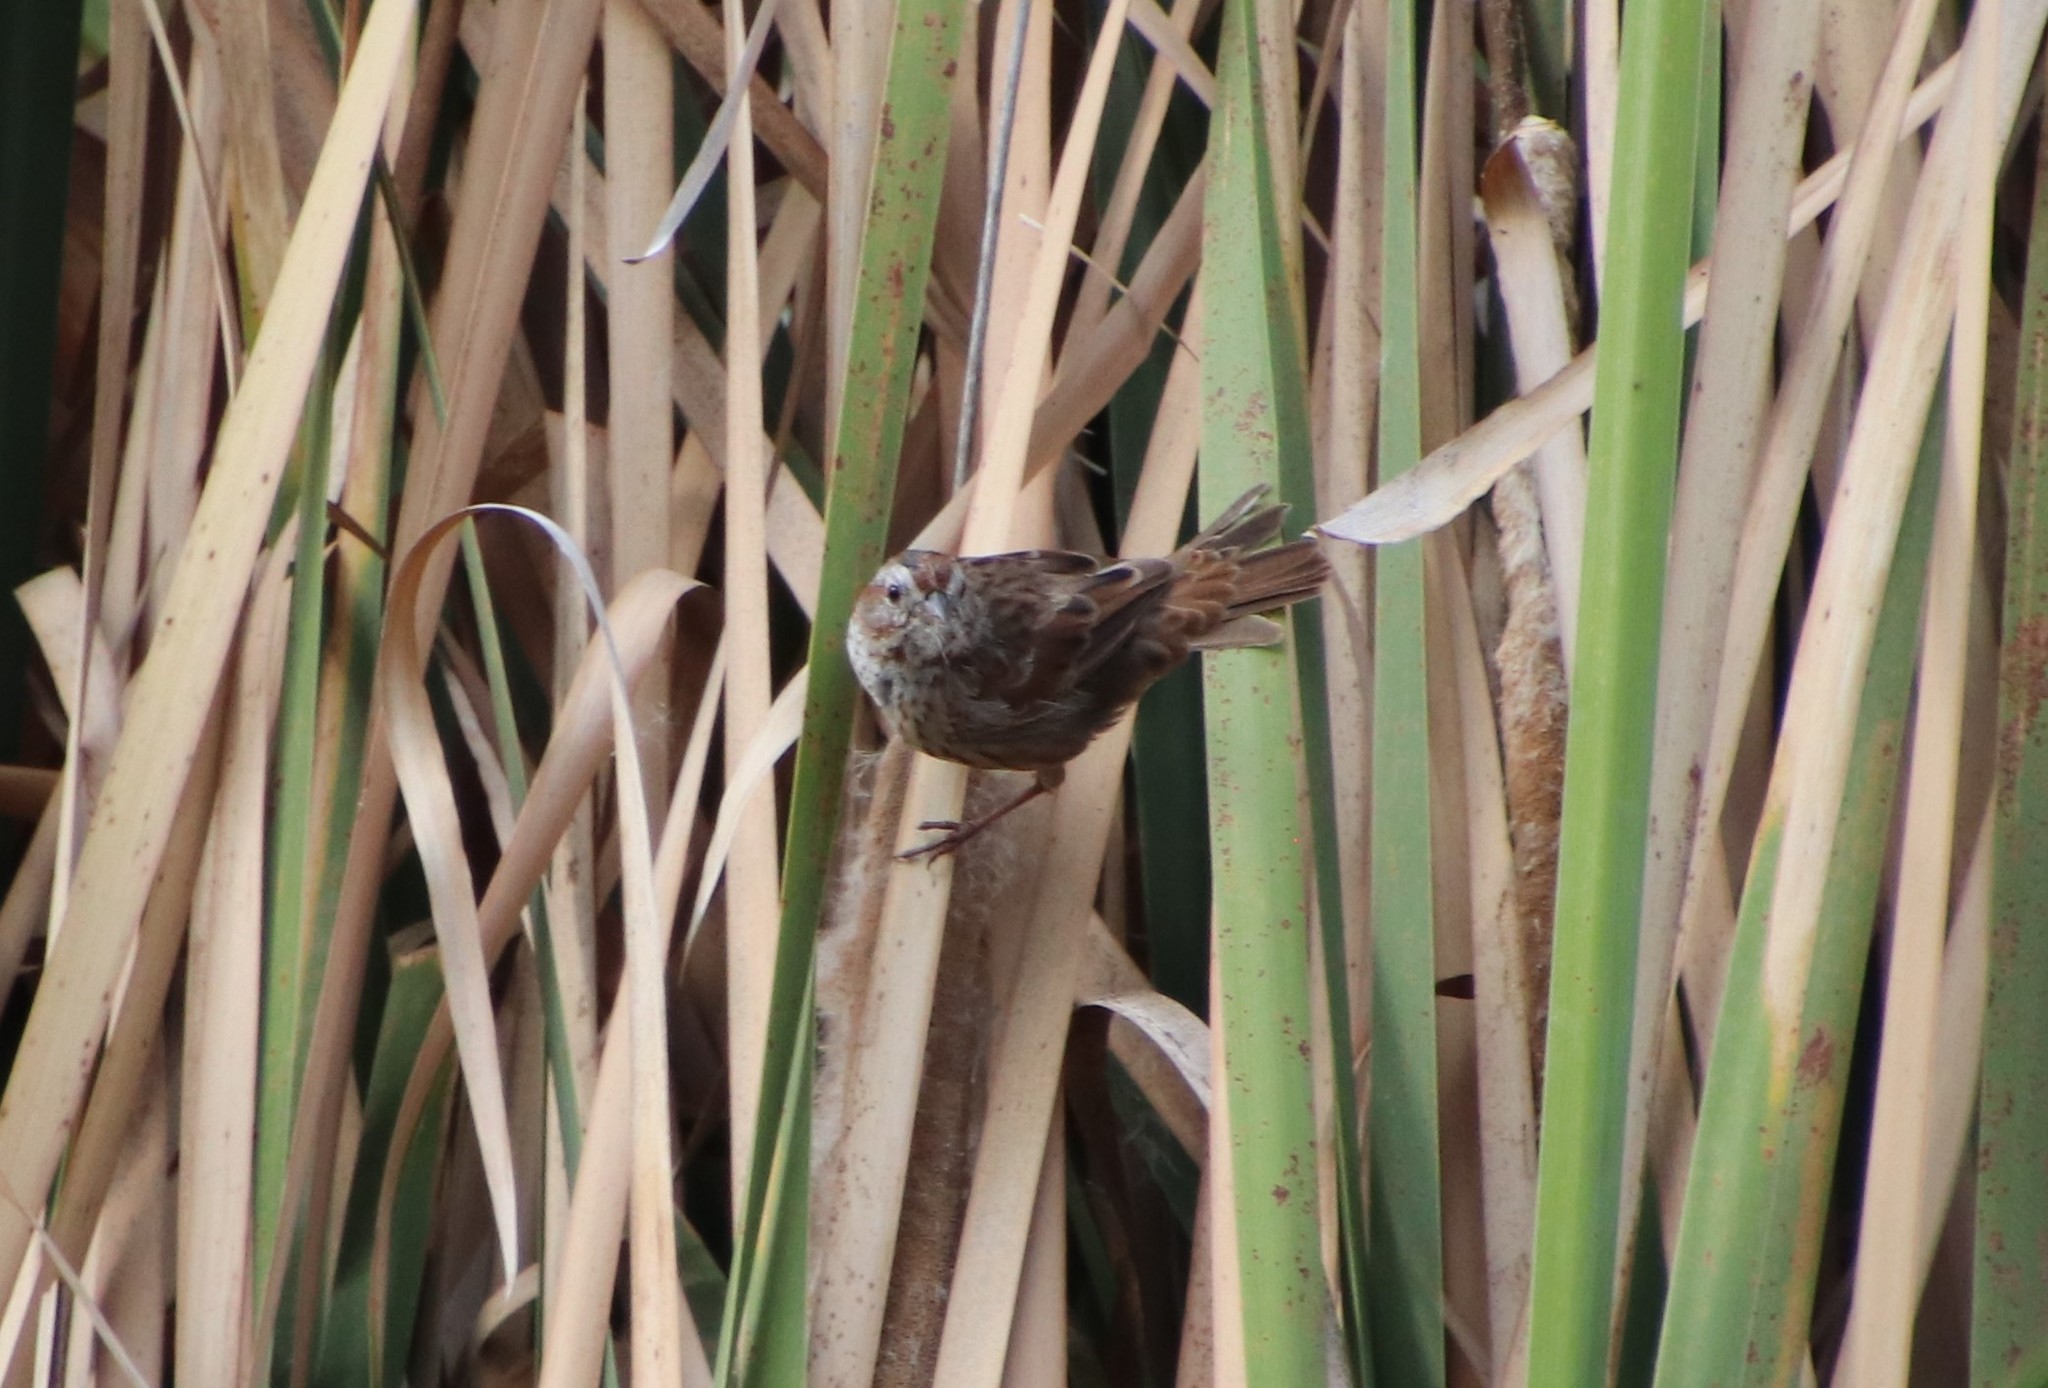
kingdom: Animalia
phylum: Chordata
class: Aves
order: Passeriformes
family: Passerellidae
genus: Melospiza
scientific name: Melospiza melodia
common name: Song sparrow
